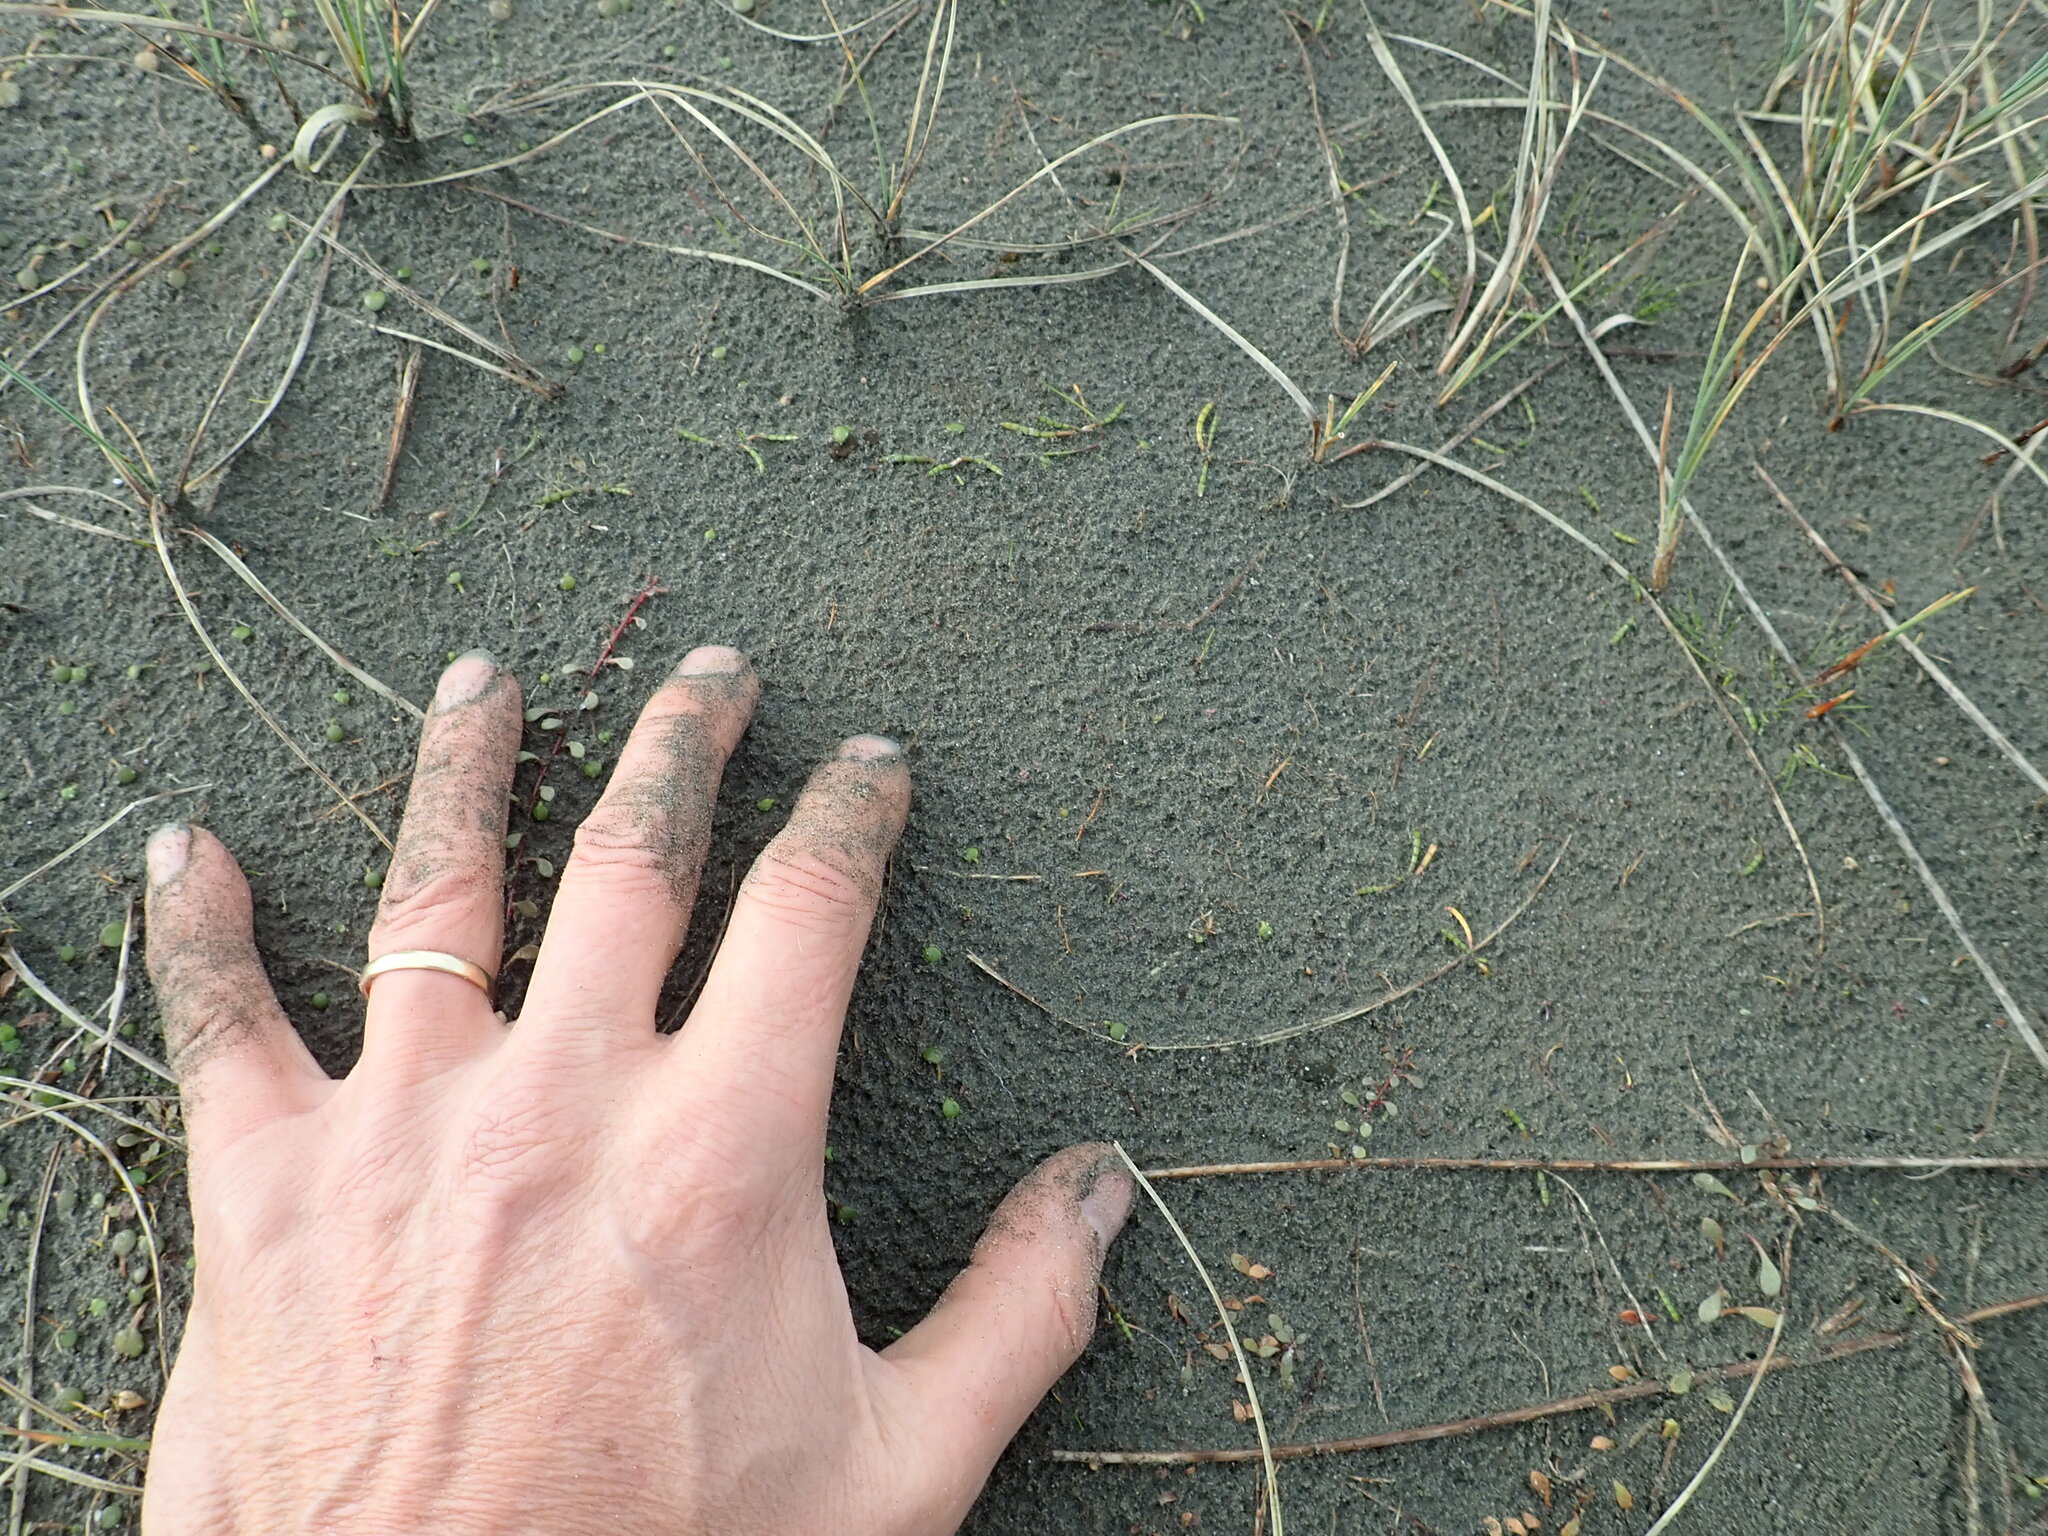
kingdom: Plantae
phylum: Tracheophyta
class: Magnoliopsida
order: Apiales
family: Apiaceae
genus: Lilaeopsis
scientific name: Lilaeopsis novae-zelandiae
